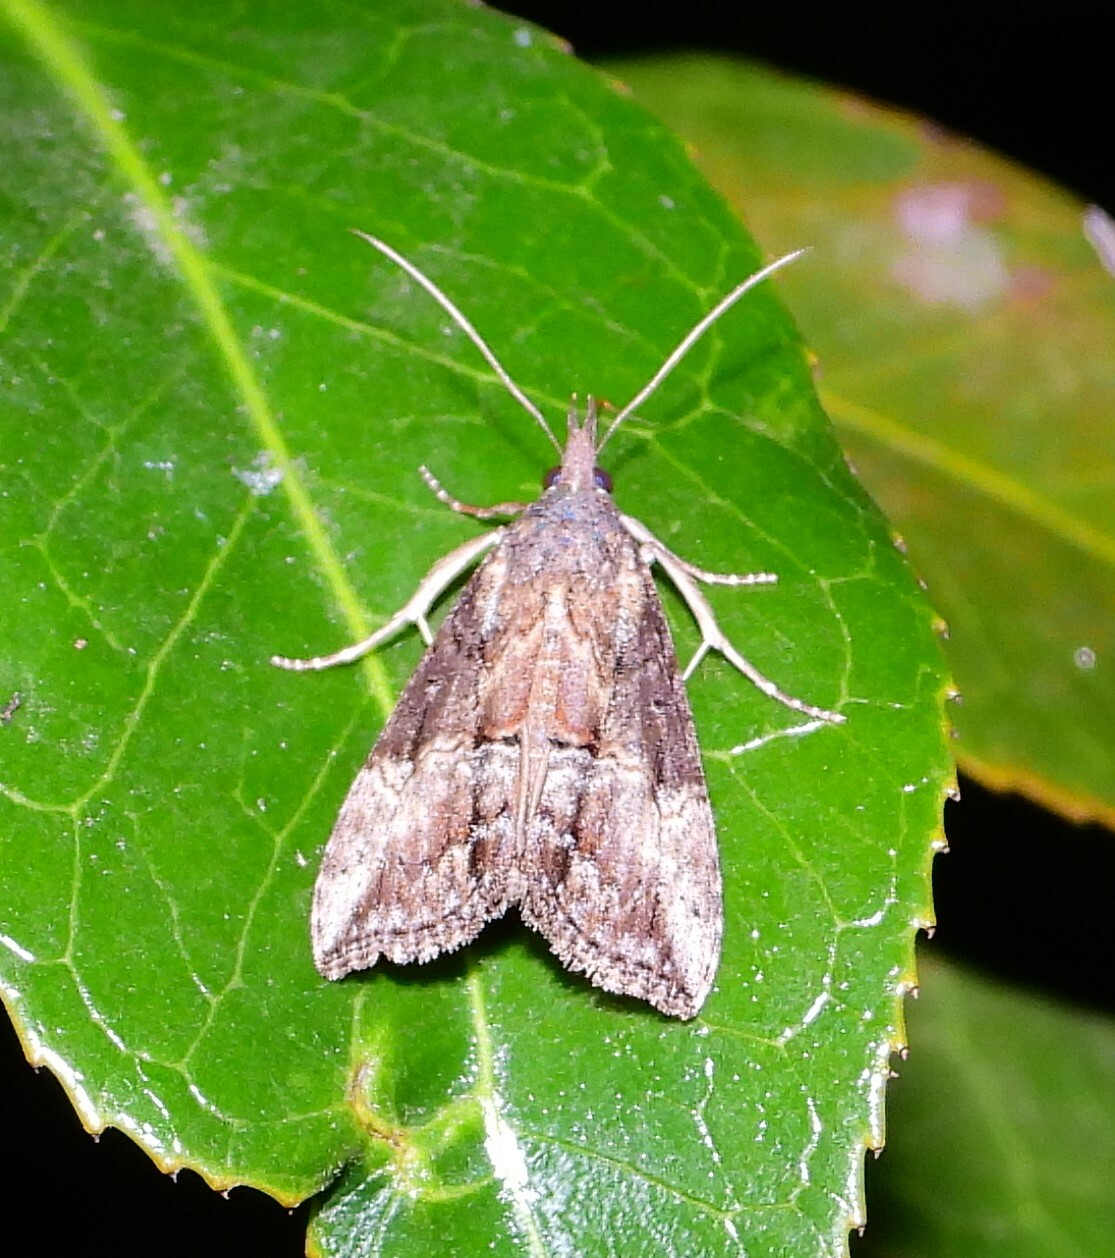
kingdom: Animalia
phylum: Arthropoda
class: Insecta
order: Lepidoptera
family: Erebidae
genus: Hypena
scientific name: Hypena scabra
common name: Green cloverworm
